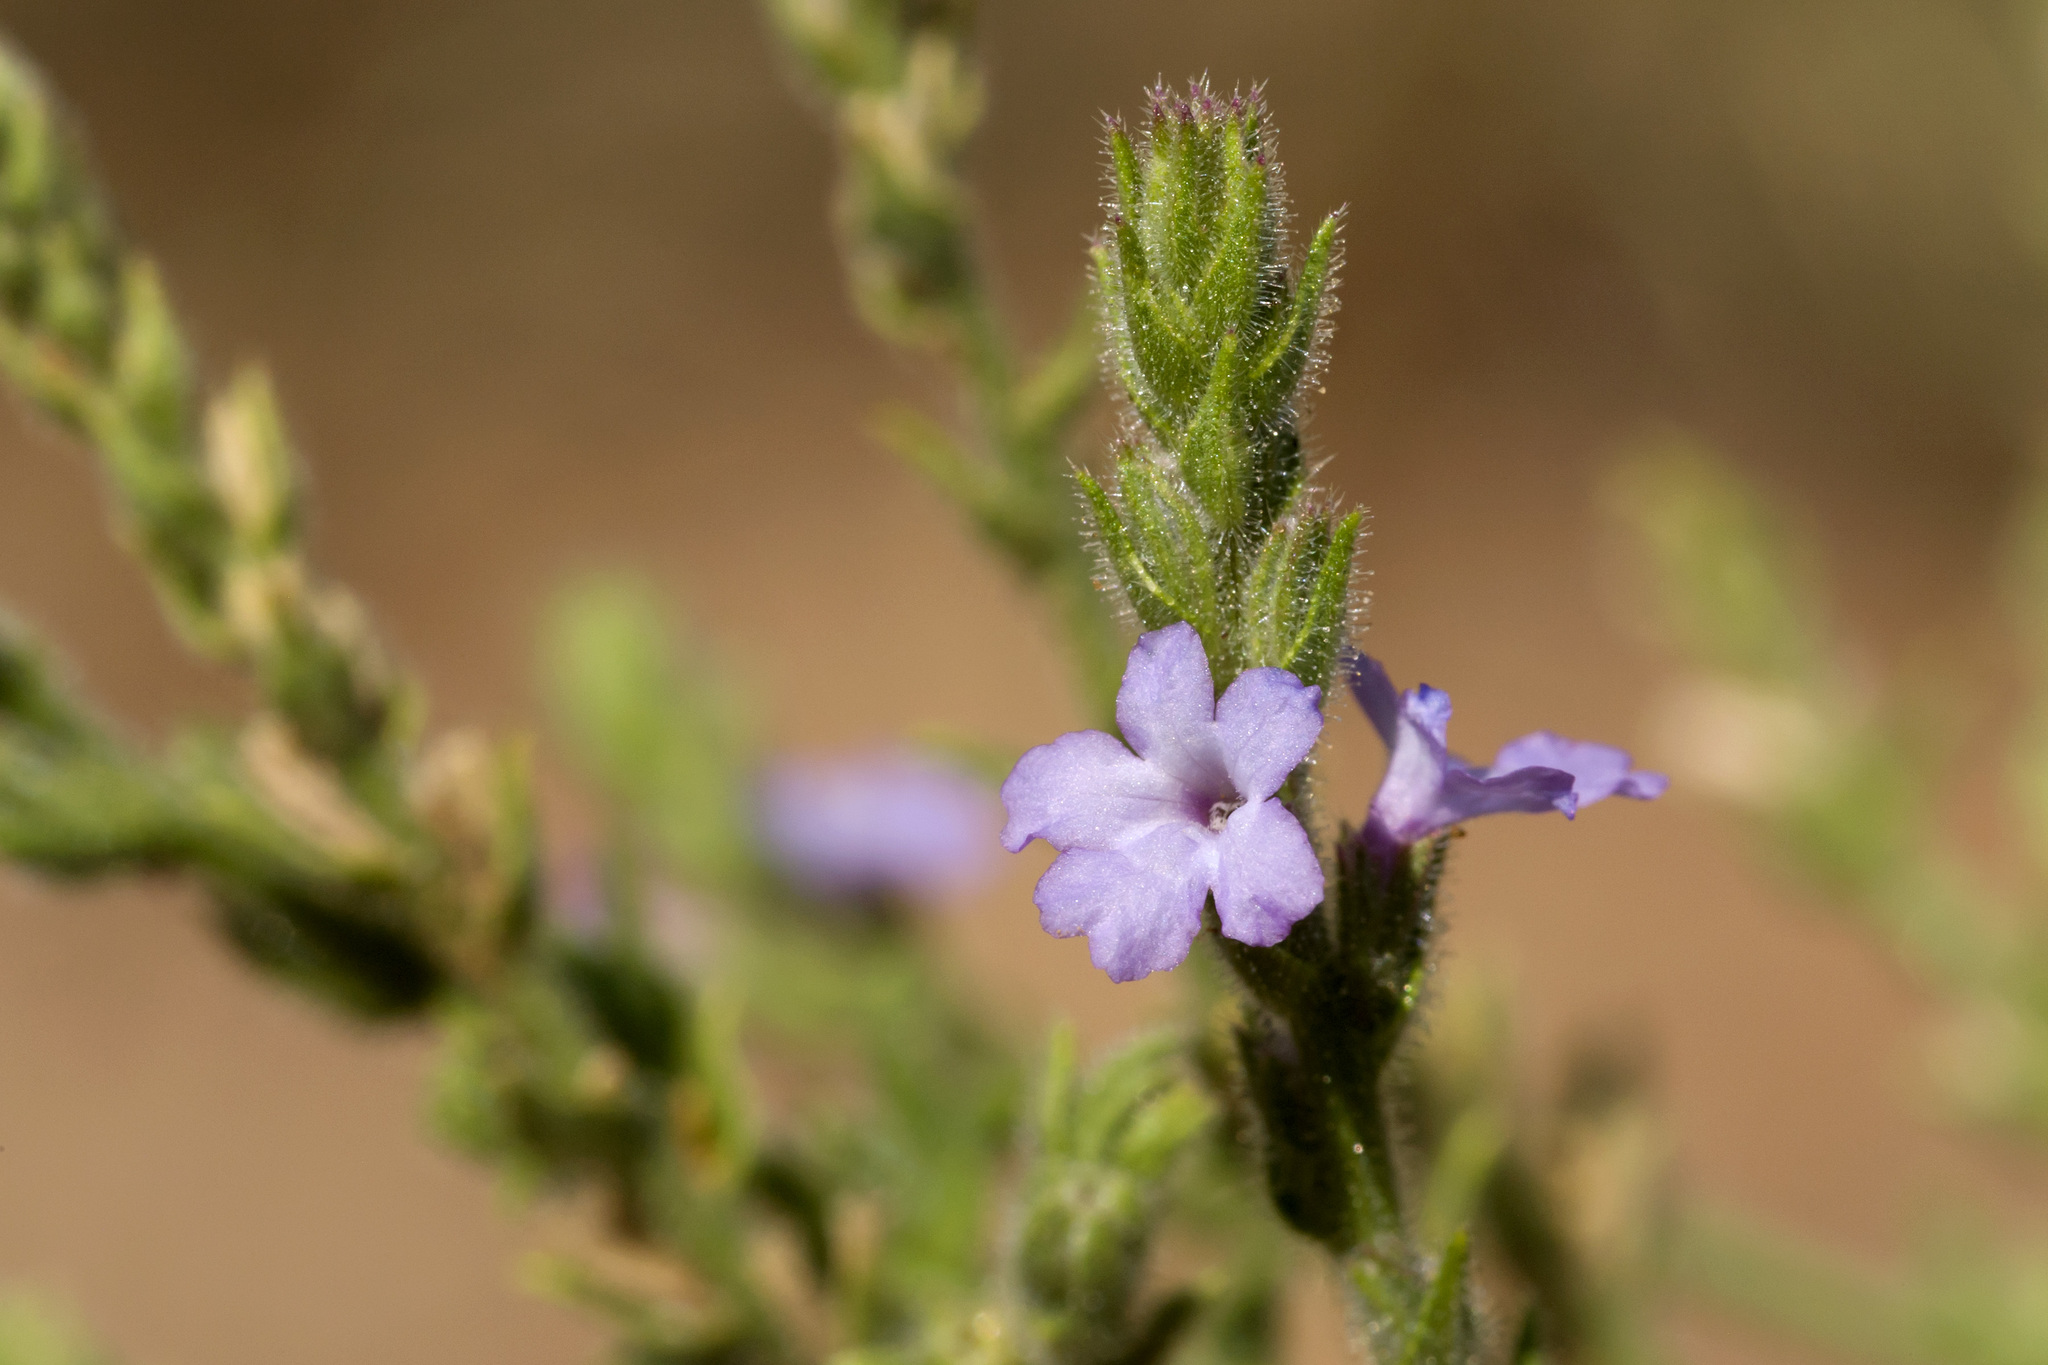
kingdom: Plantae
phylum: Tracheophyta
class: Magnoliopsida
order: Lamiales
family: Verbenaceae
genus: Verbena
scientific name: Verbena plicata
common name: Fan-leaf vervain
